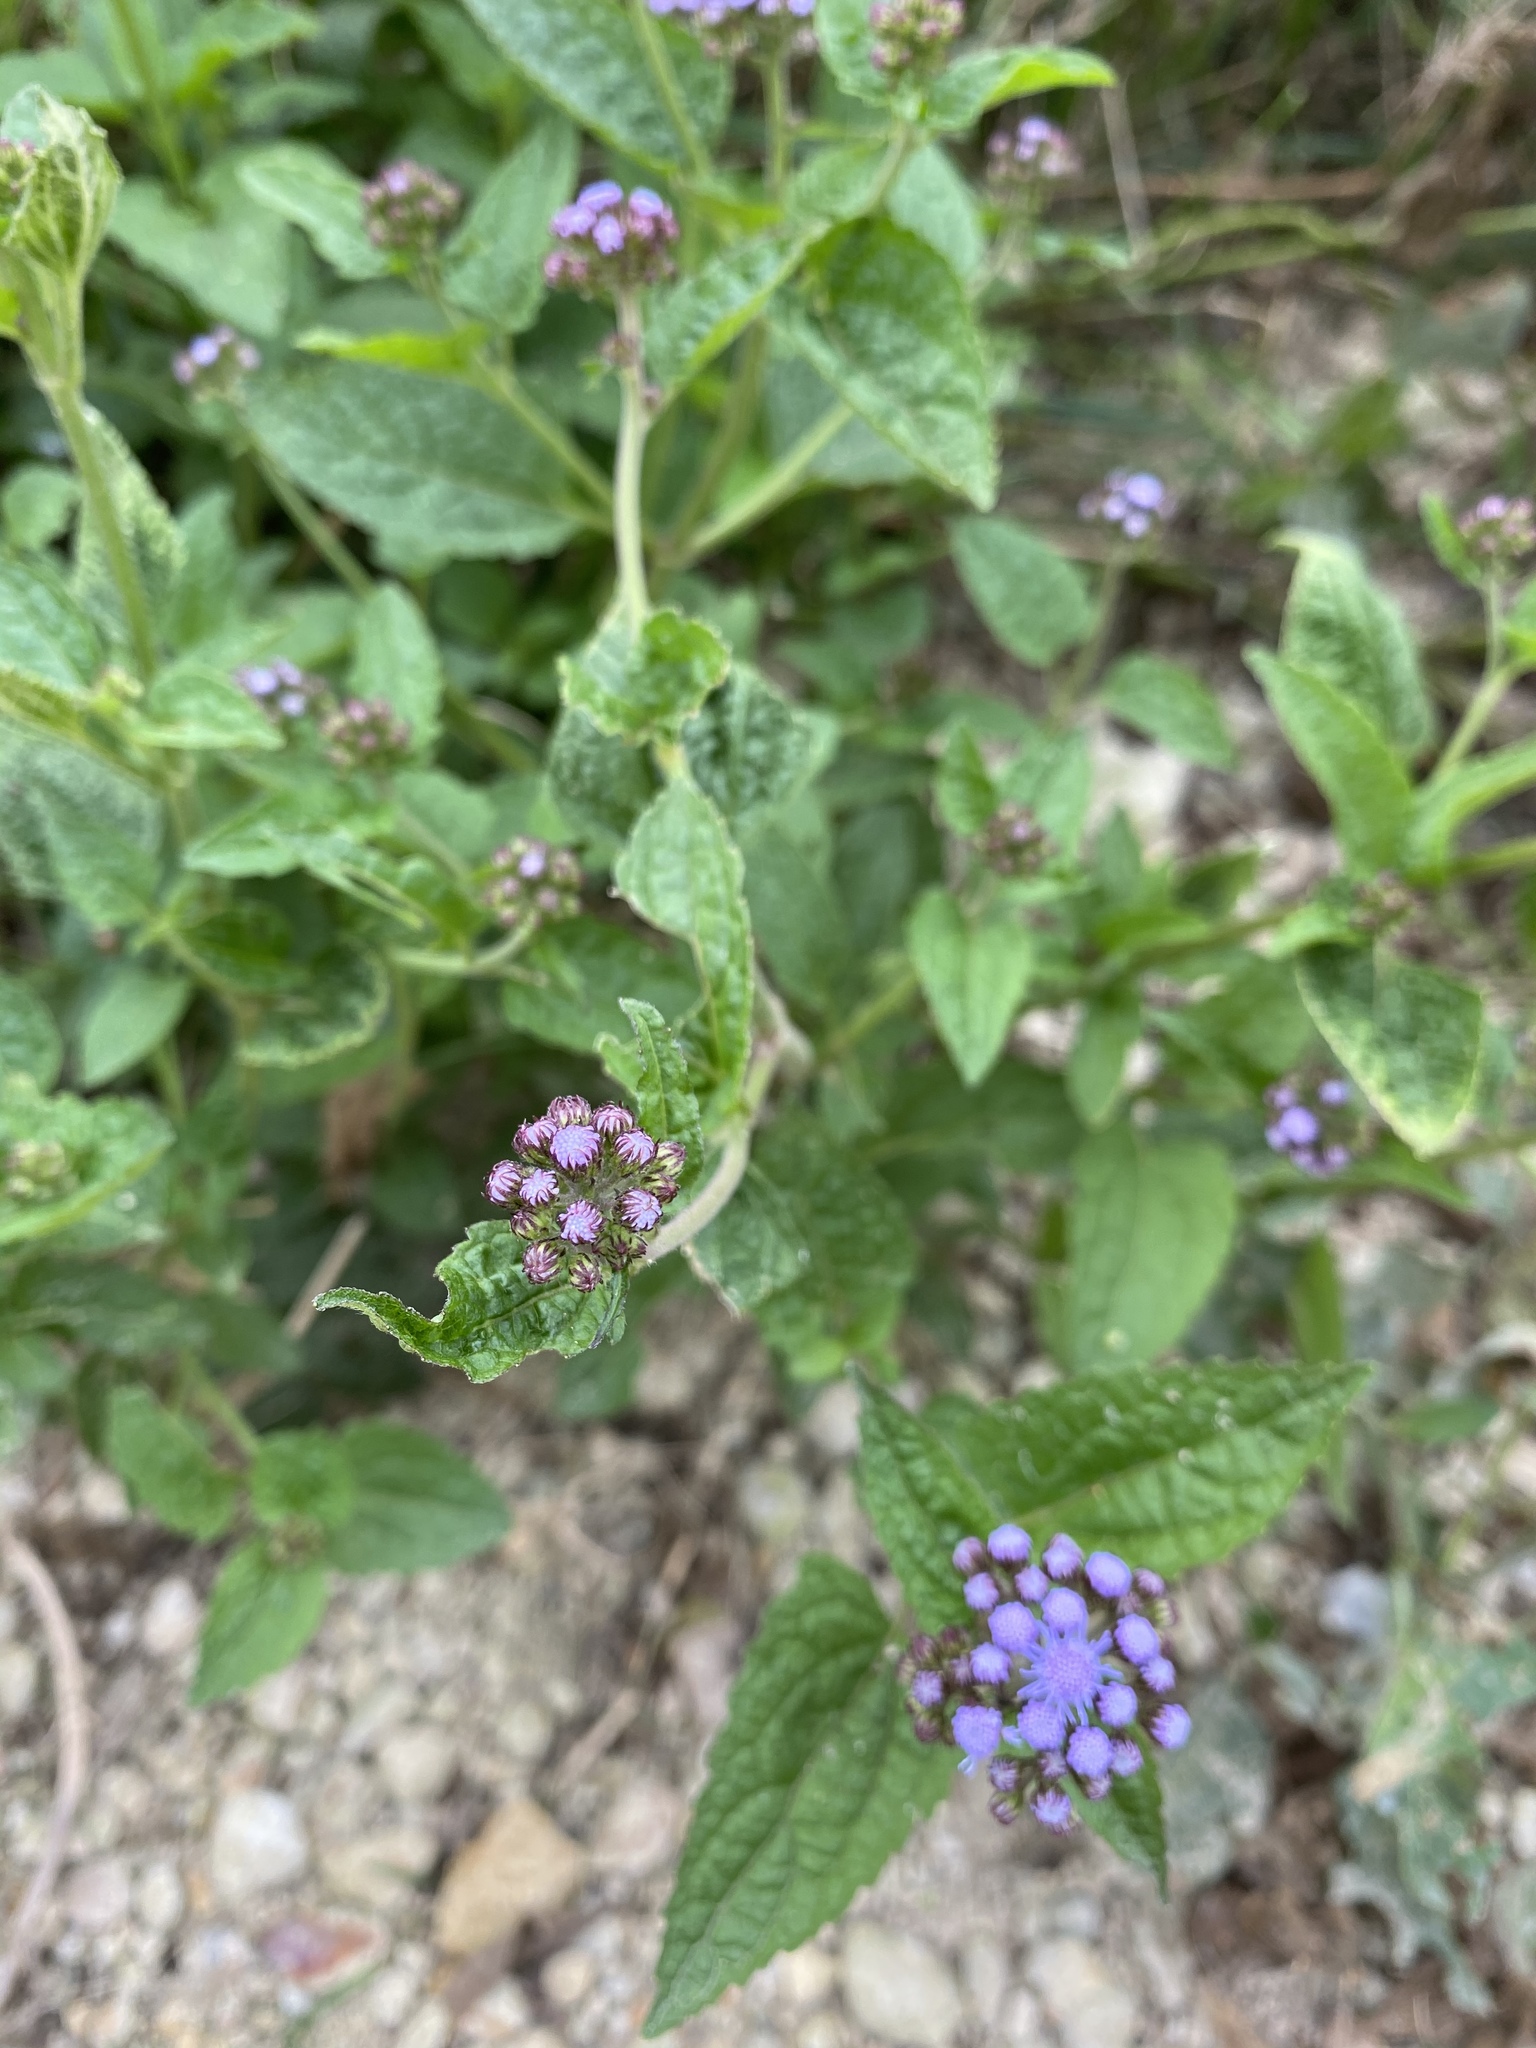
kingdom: Plantae
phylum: Tracheophyta
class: Magnoliopsida
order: Asterales
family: Asteraceae
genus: Conoclinium
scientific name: Conoclinium coelestinum
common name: Blue mistflower
